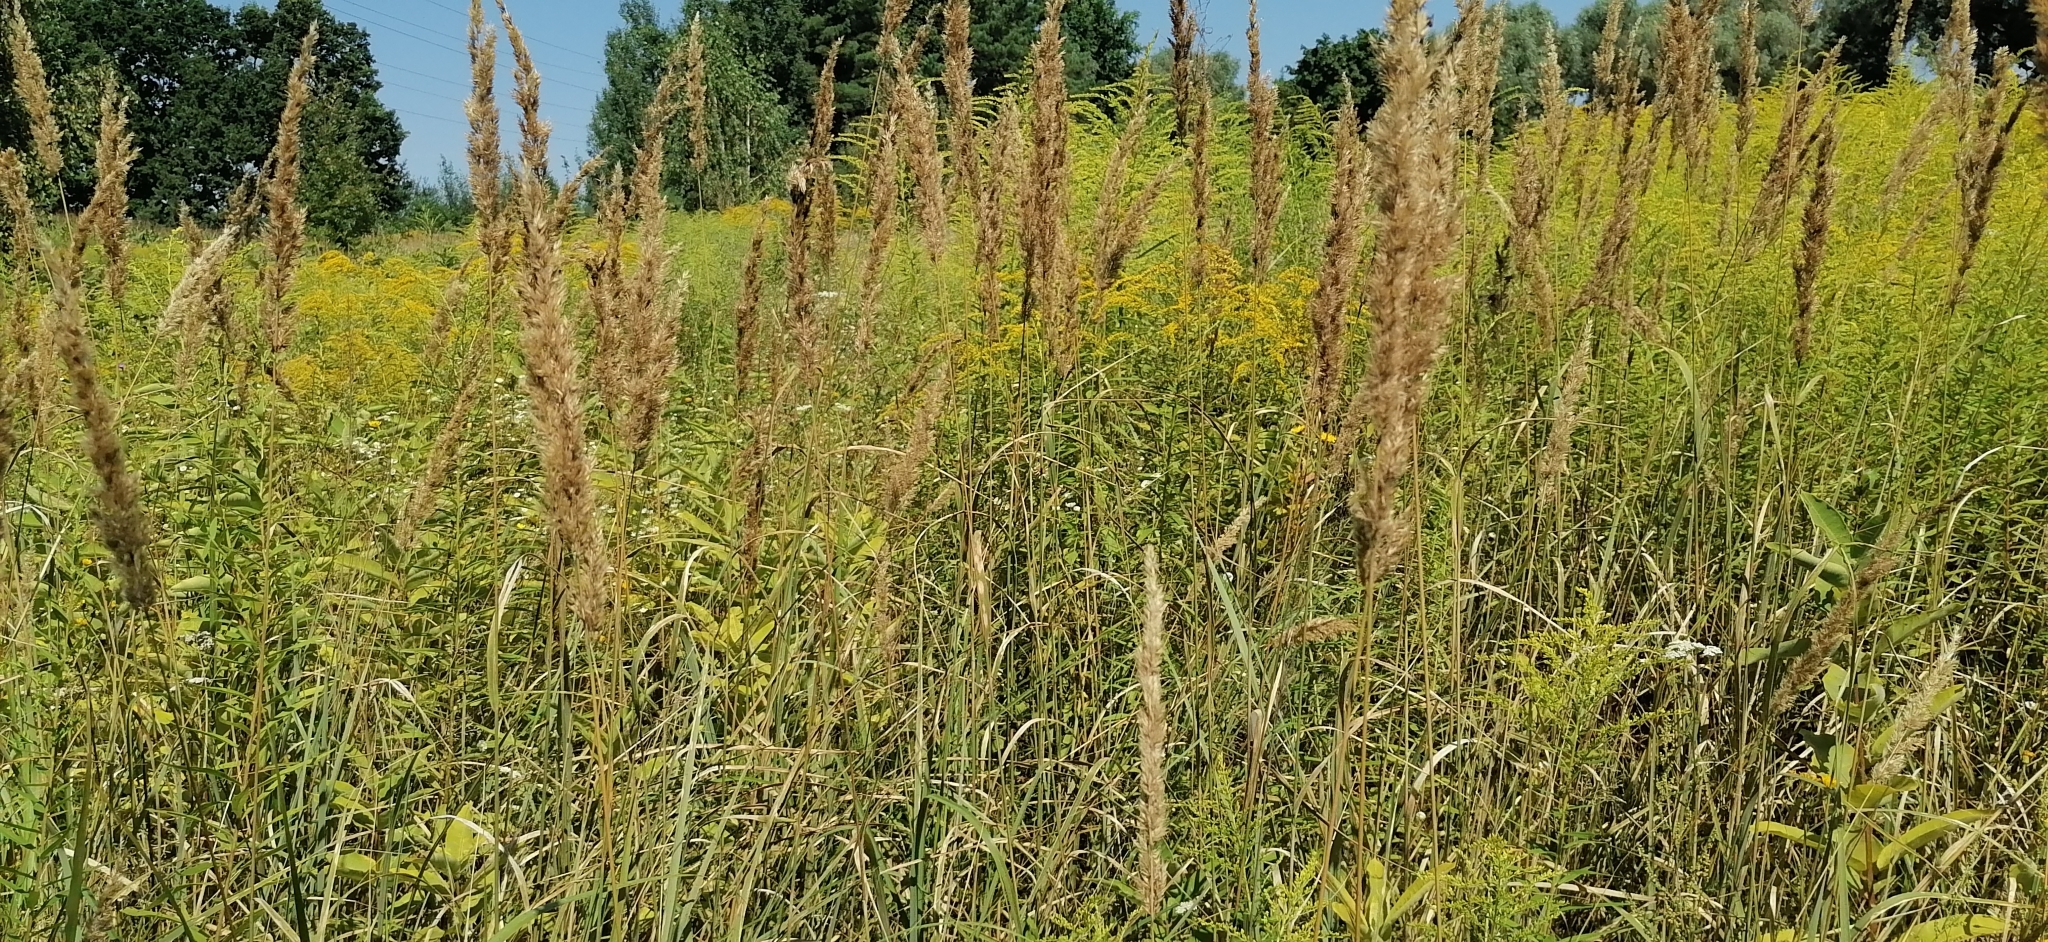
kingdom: Plantae
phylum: Tracheophyta
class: Liliopsida
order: Poales
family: Poaceae
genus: Calamagrostis
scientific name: Calamagrostis epigejos
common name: Wood small-reed
